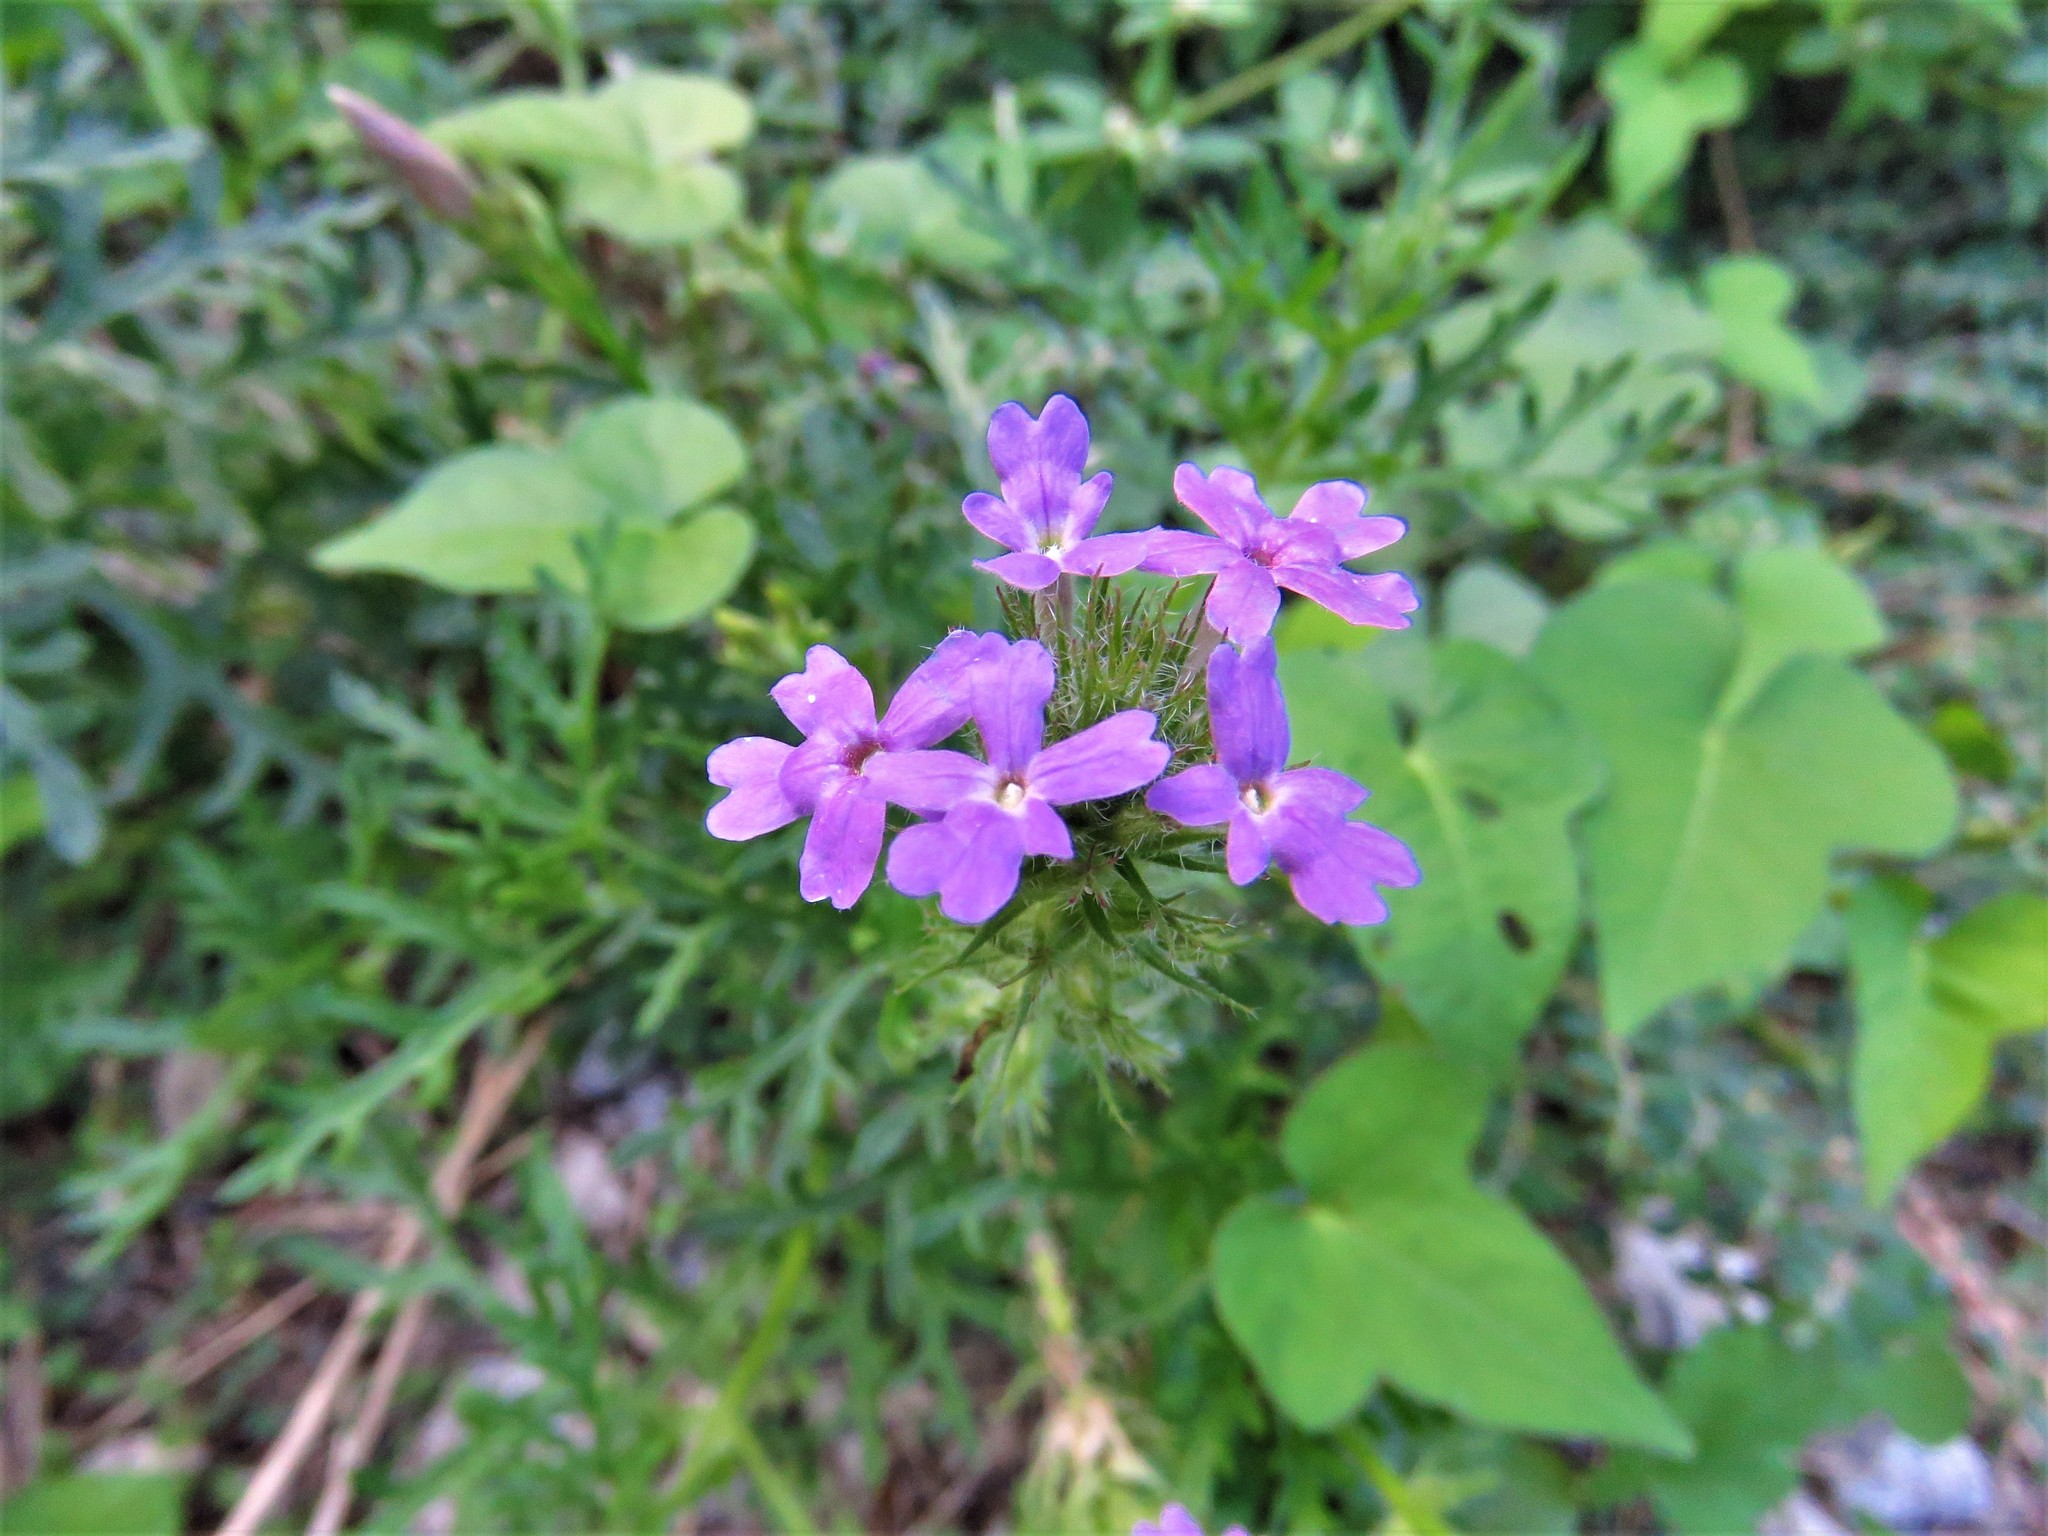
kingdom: Plantae
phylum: Tracheophyta
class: Magnoliopsida
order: Lamiales
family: Verbenaceae
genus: Verbena
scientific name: Verbena bipinnatifida
